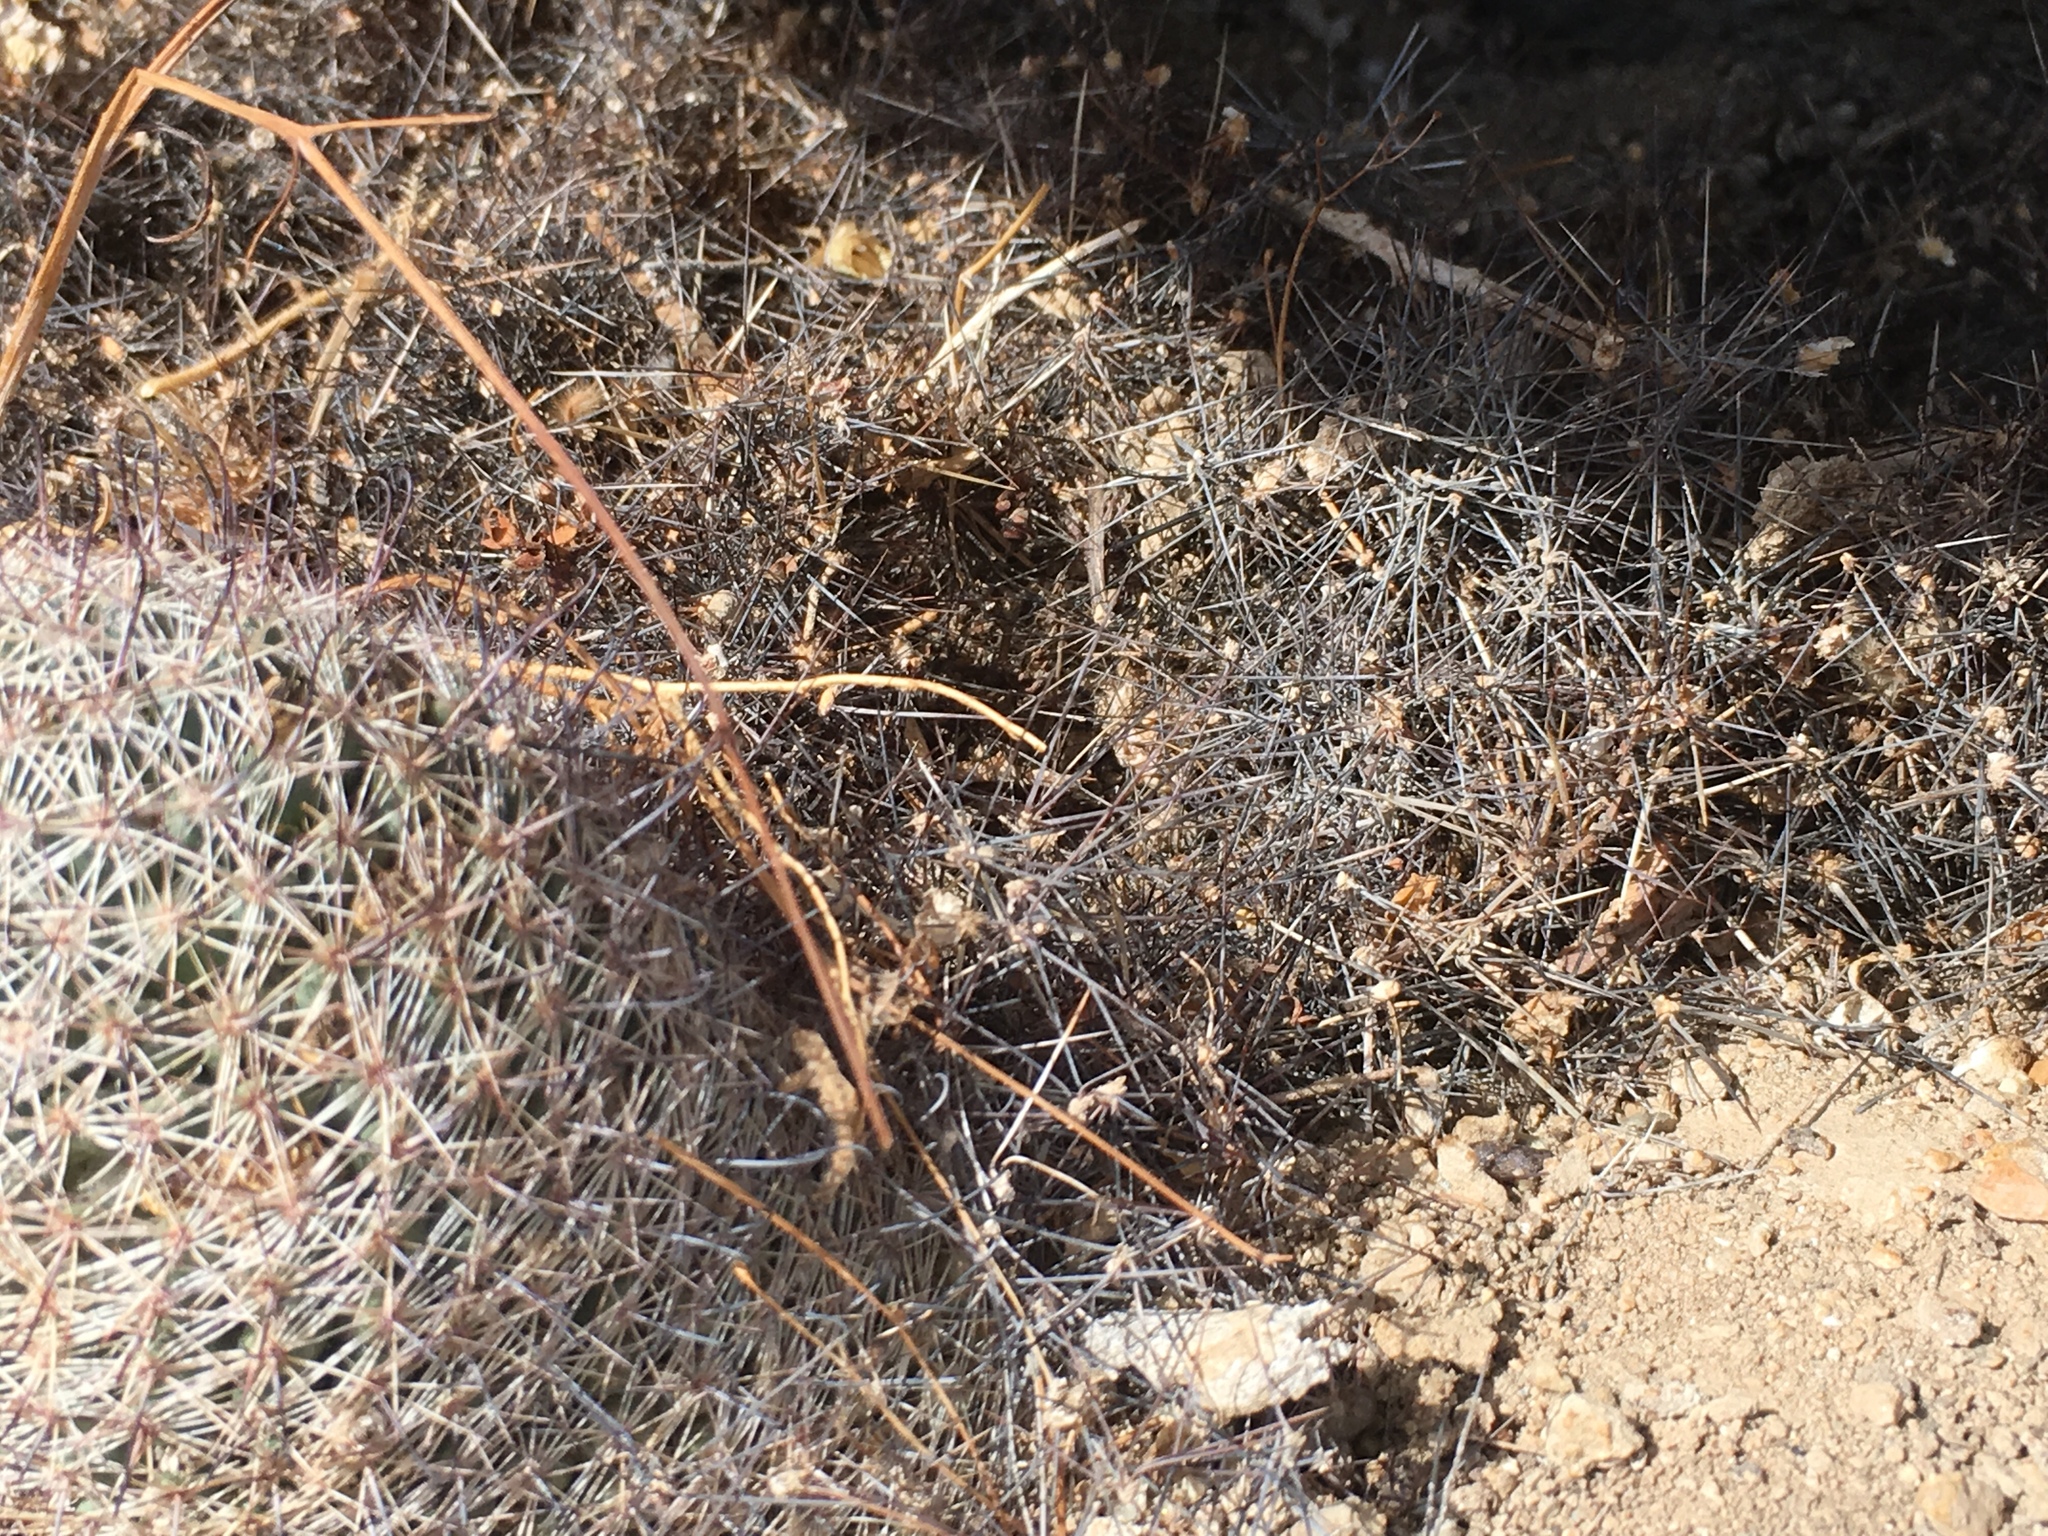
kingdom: Plantae
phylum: Tracheophyta
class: Magnoliopsida
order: Caryophyllales
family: Cactaceae
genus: Cochemiea
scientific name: Cochemiea dioica
